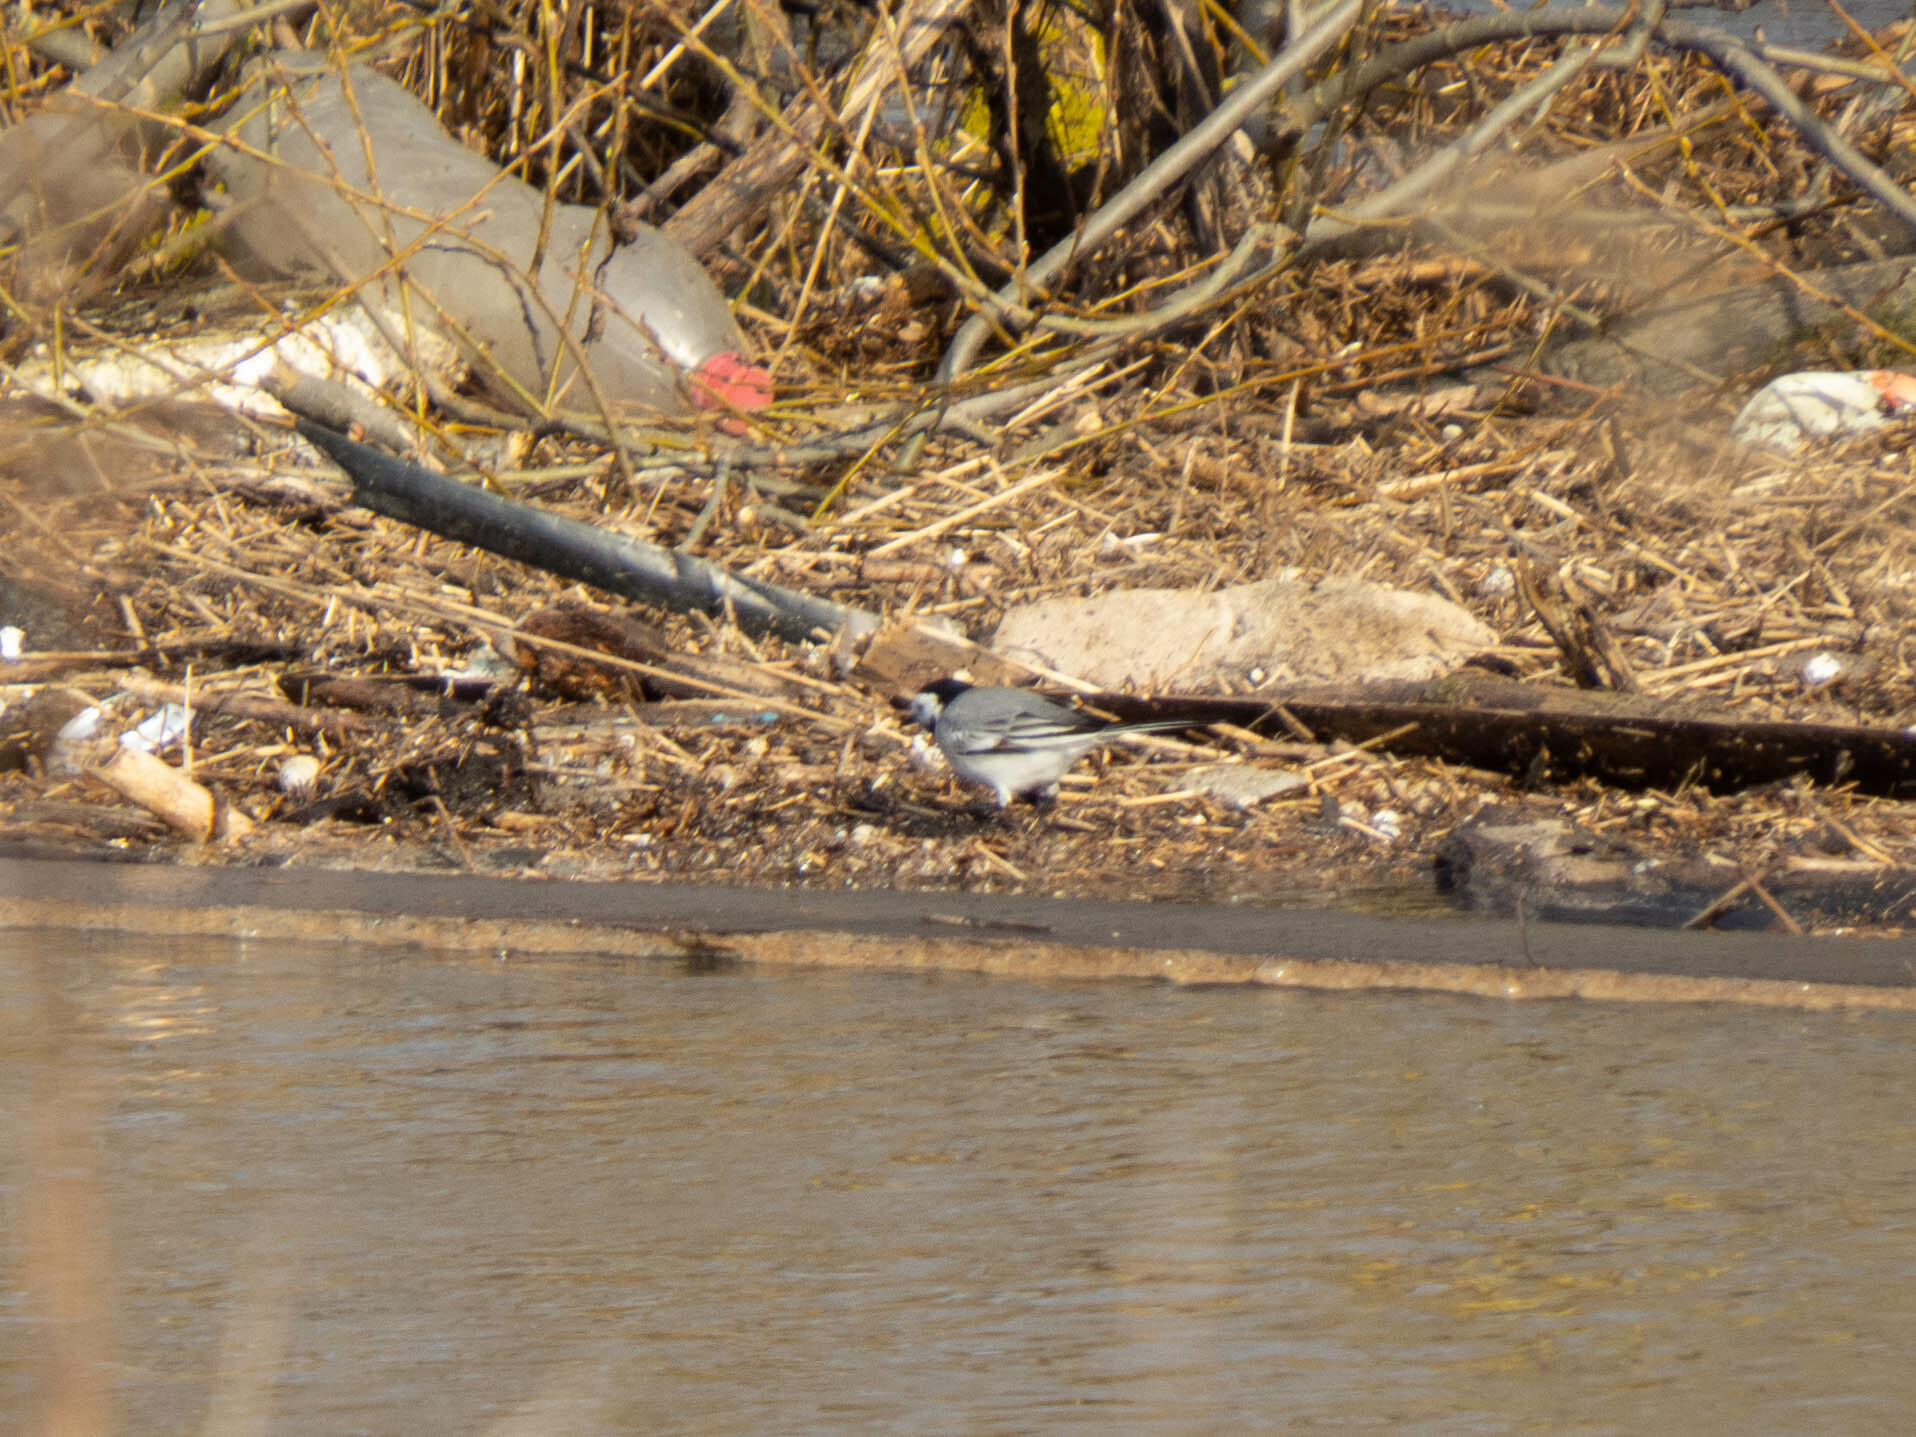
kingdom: Animalia
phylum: Chordata
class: Aves
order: Passeriformes
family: Motacillidae
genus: Motacilla
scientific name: Motacilla alba
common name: White wagtail
